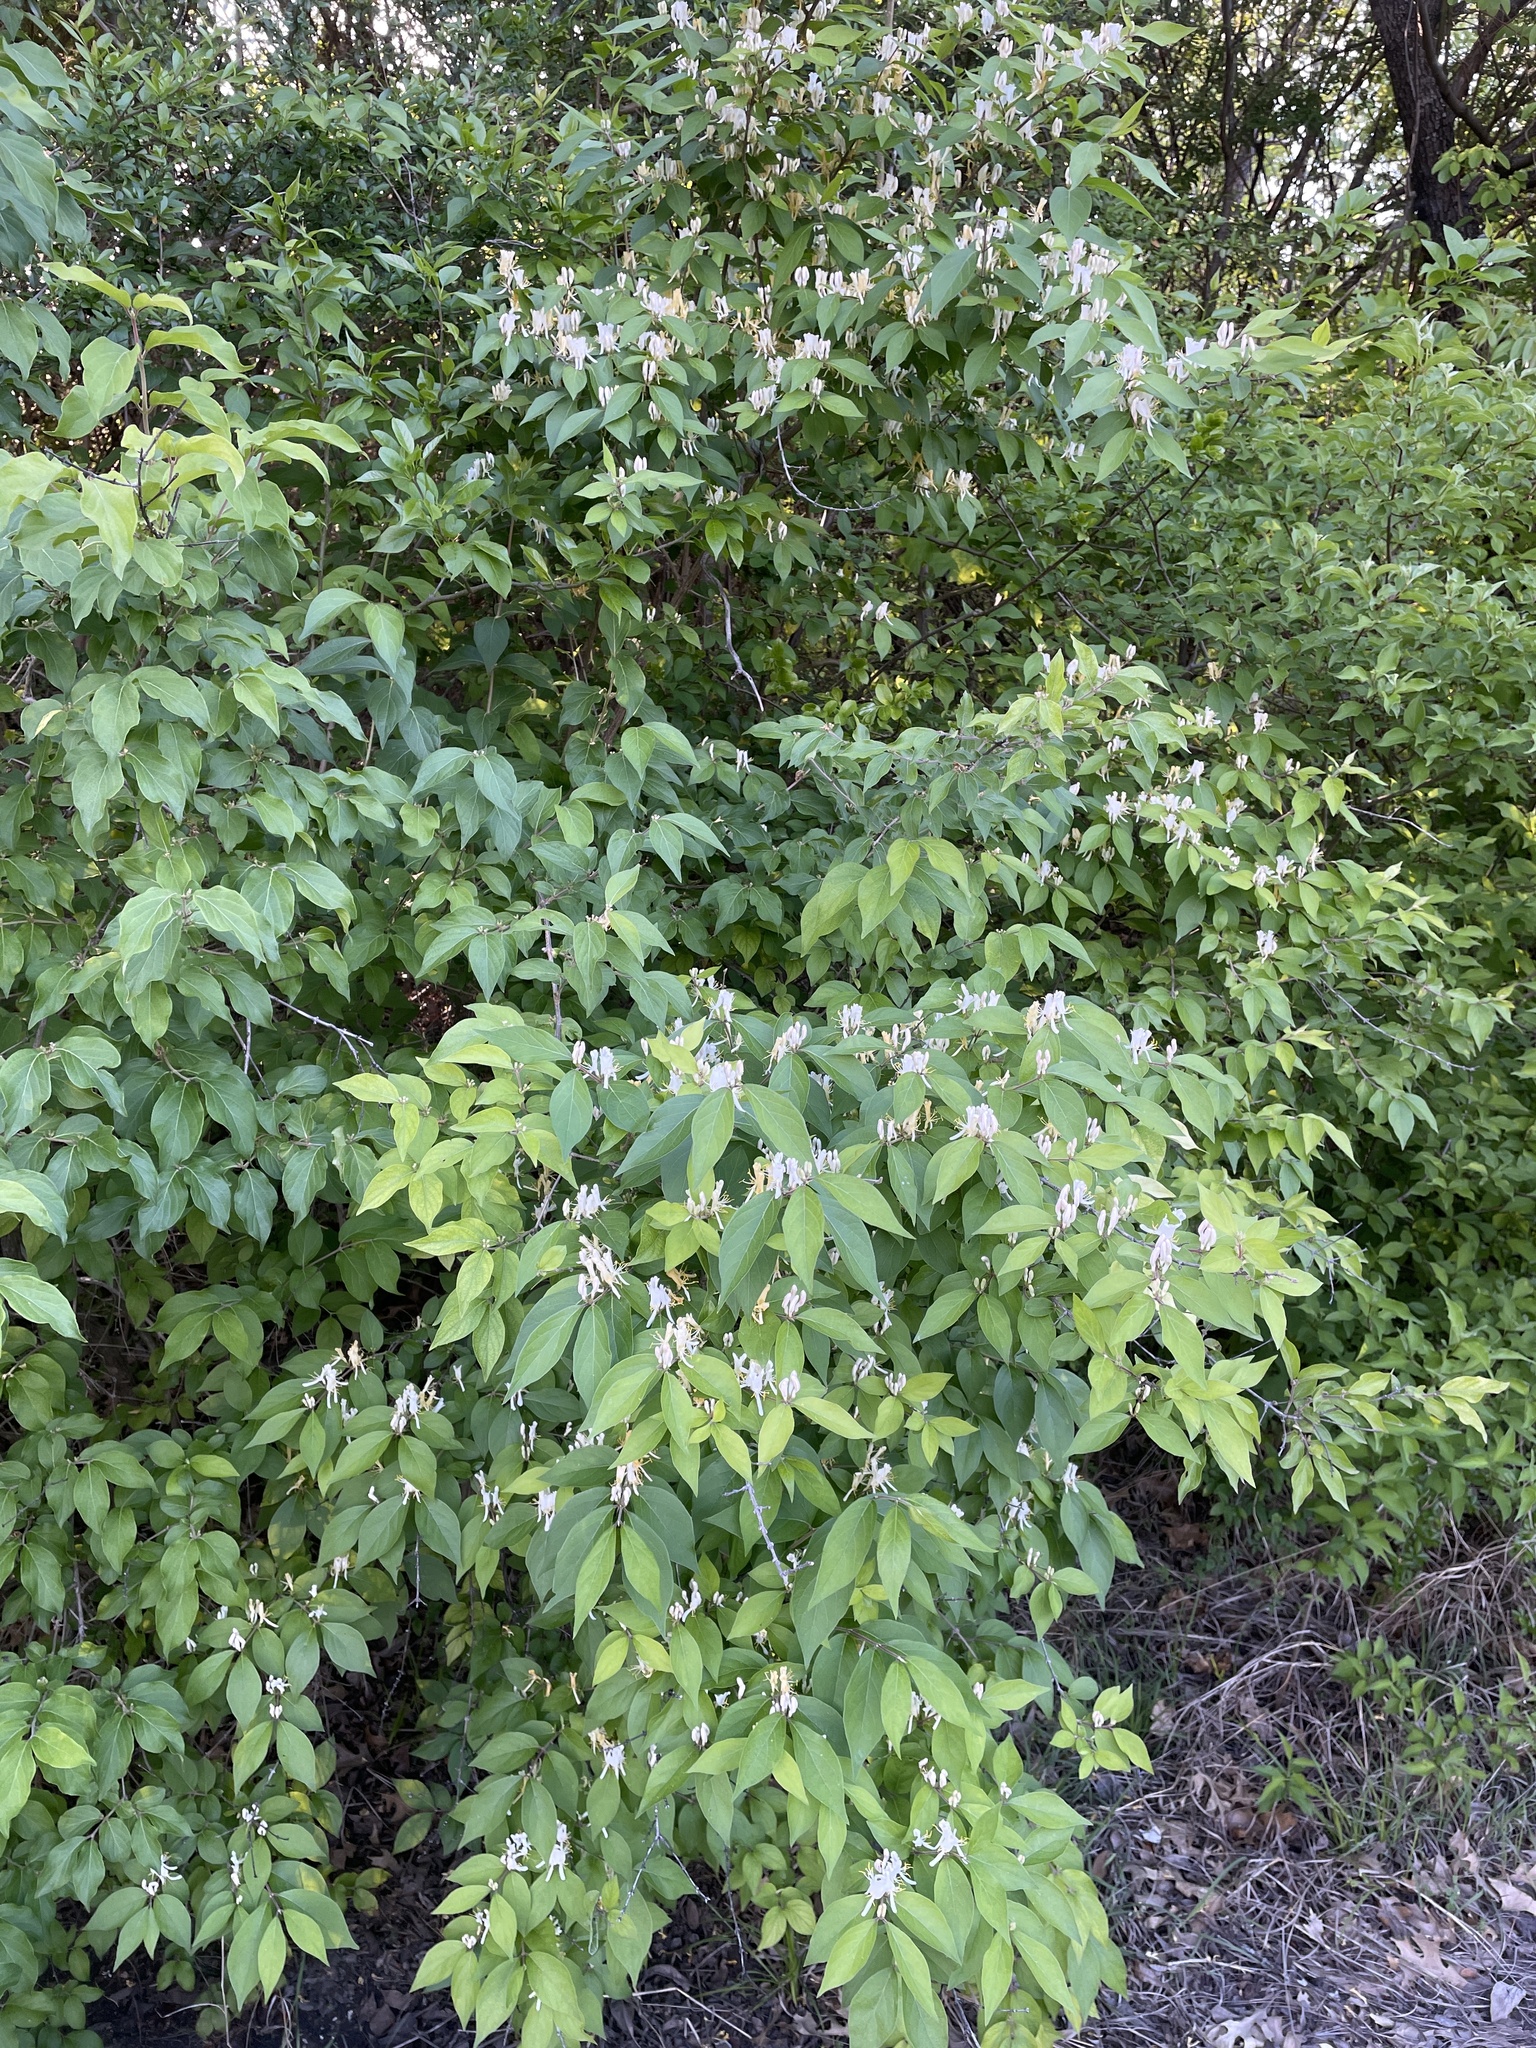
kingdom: Plantae
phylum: Tracheophyta
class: Magnoliopsida
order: Dipsacales
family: Caprifoliaceae
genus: Lonicera
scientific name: Lonicera maackii
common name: Amur honeysuckle
